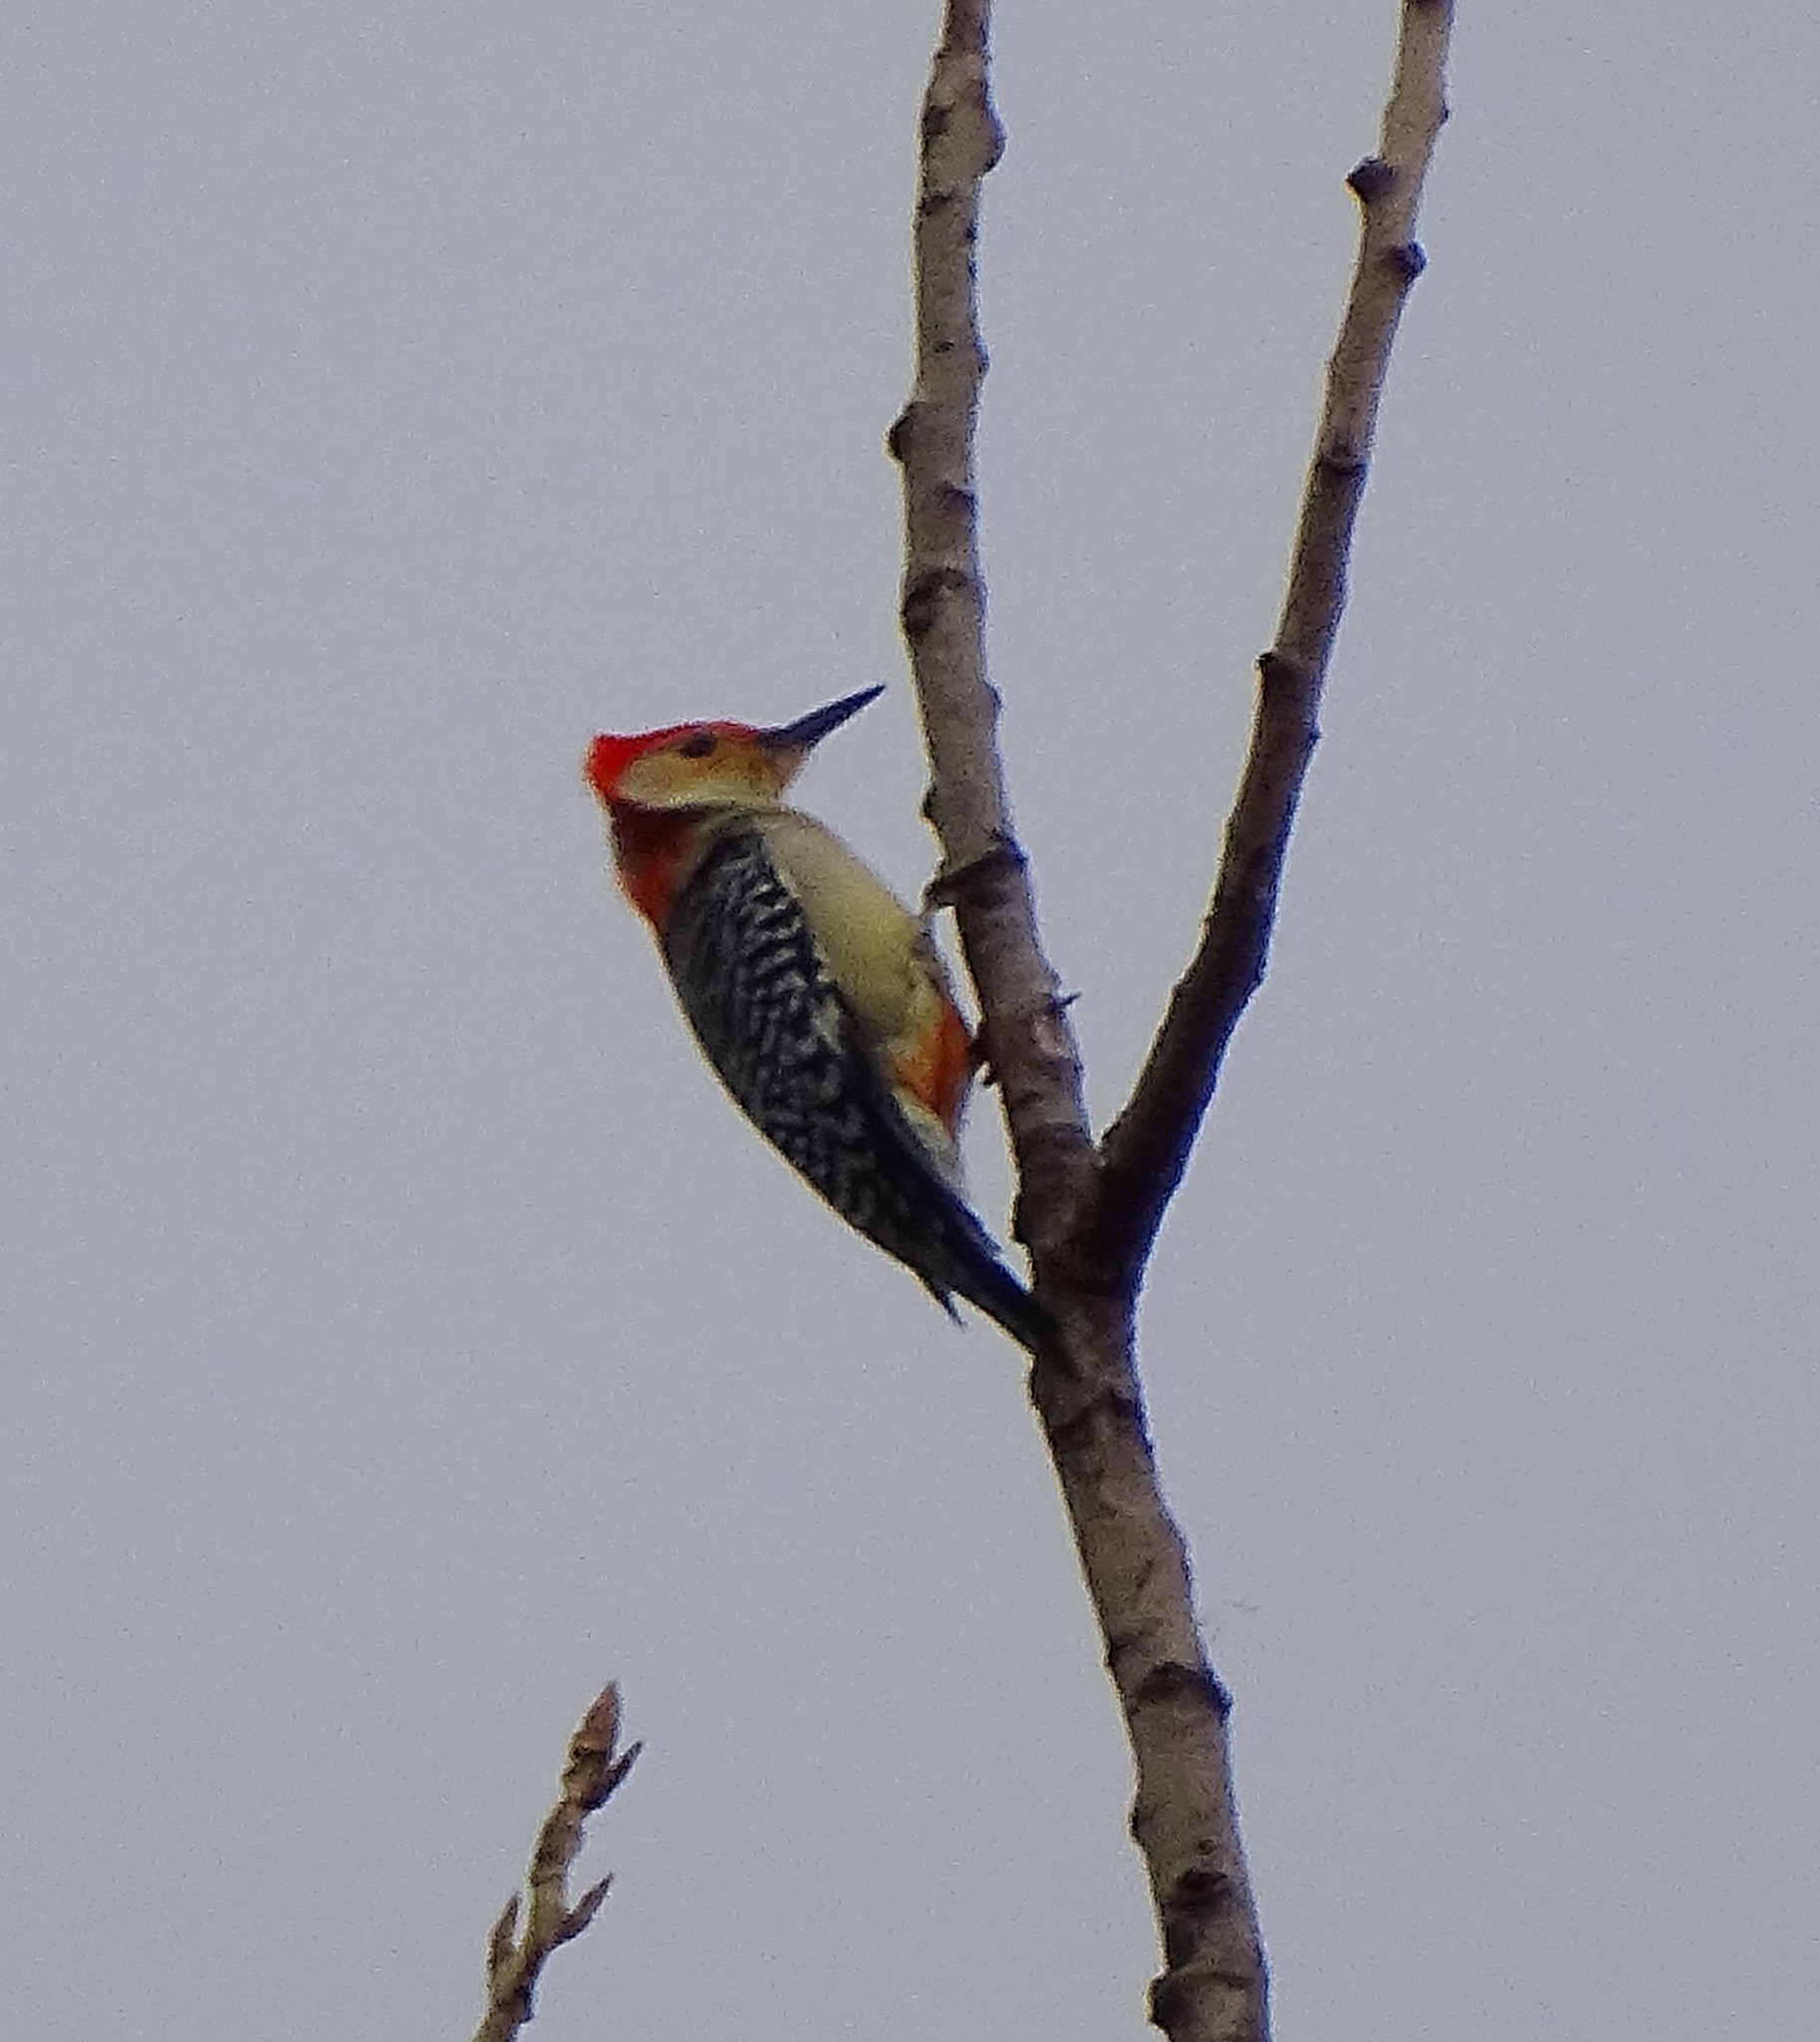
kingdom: Animalia
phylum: Chordata
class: Aves
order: Piciformes
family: Picidae
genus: Melanerpes
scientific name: Melanerpes carolinus
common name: Red-bellied woodpecker
